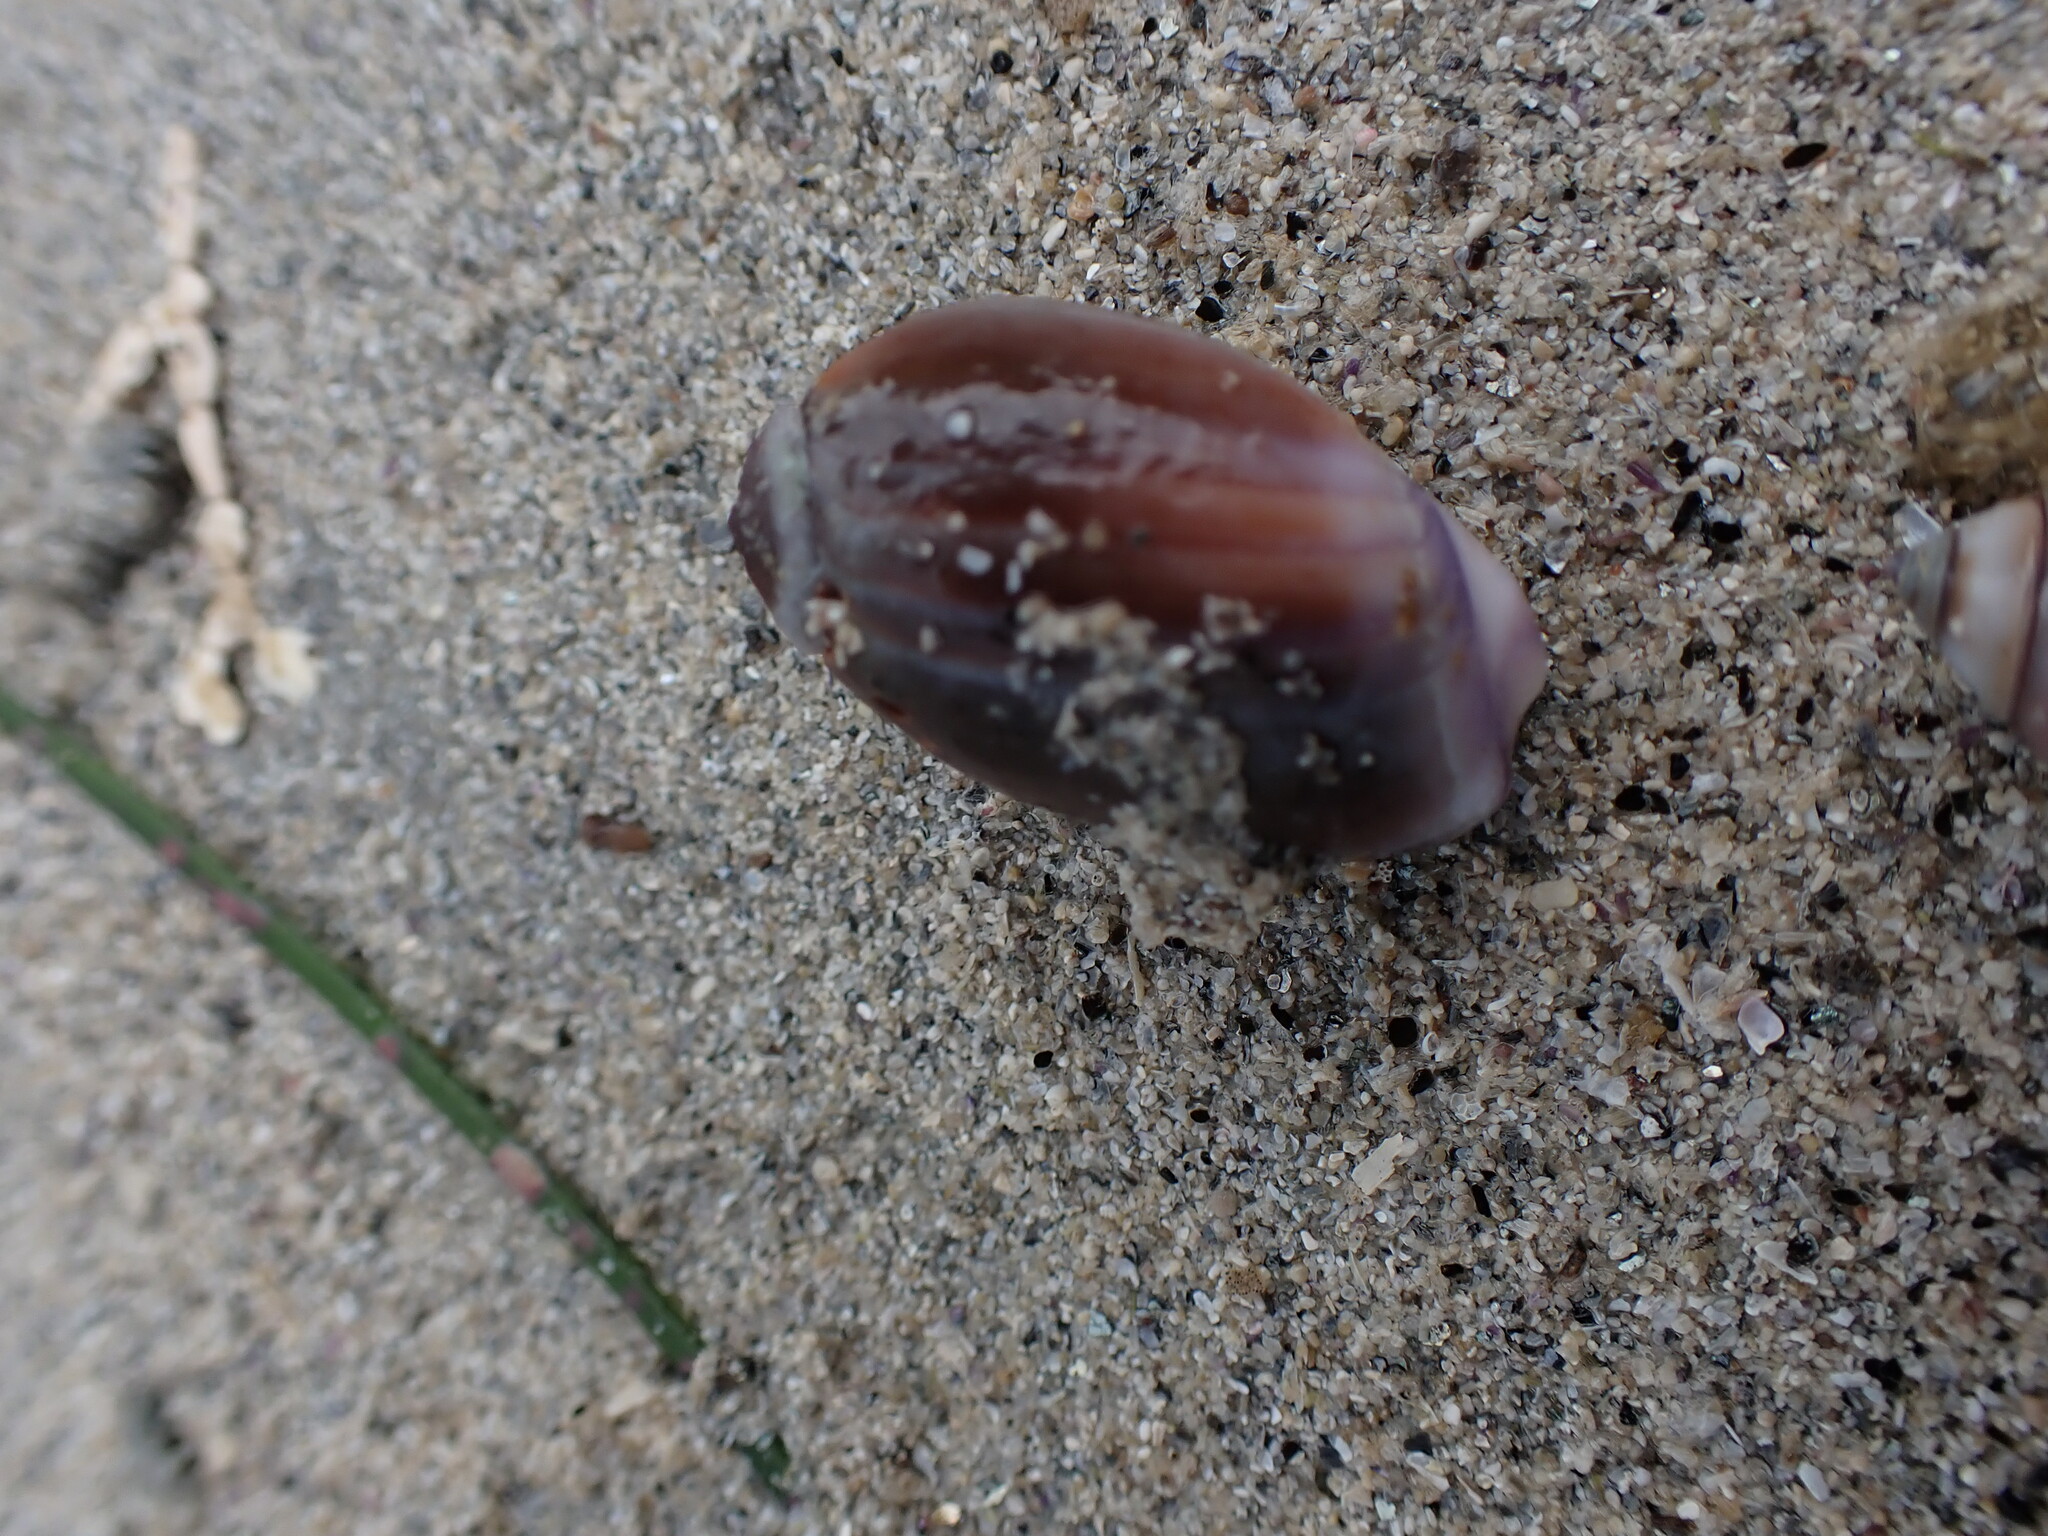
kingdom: Animalia
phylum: Mollusca
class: Gastropoda
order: Neogastropoda
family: Olividae
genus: Callianax
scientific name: Callianax biplicata
